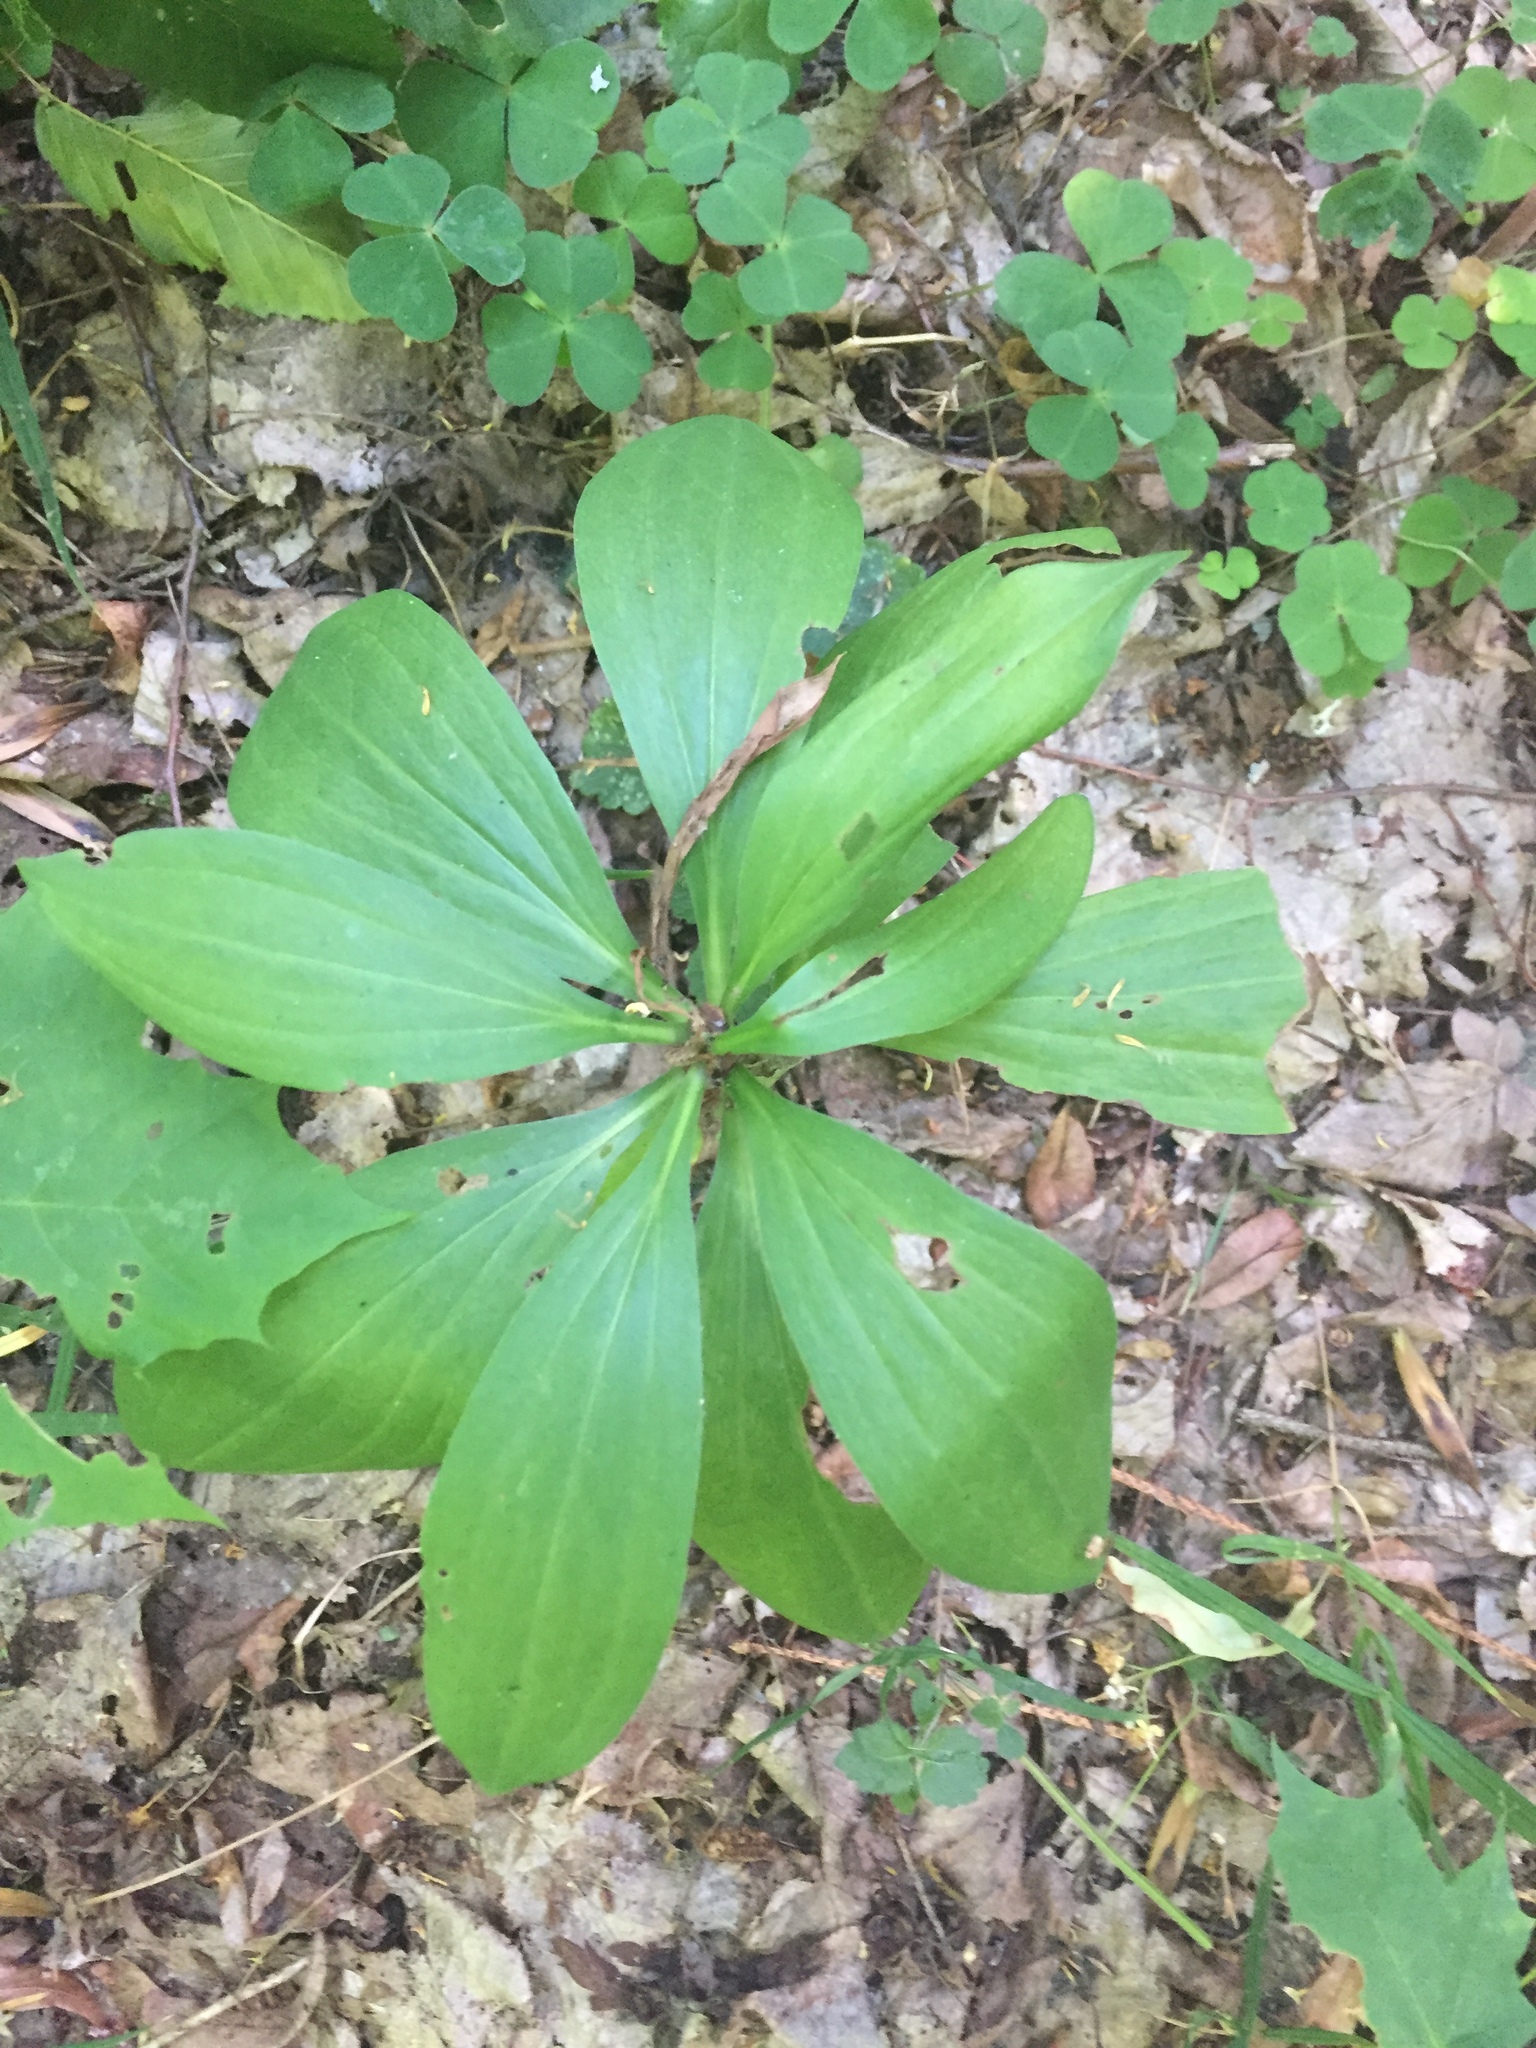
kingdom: Plantae
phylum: Tracheophyta
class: Liliopsida
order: Liliales
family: Liliaceae
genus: Lilium
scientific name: Lilium martagon
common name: Martagon lily
